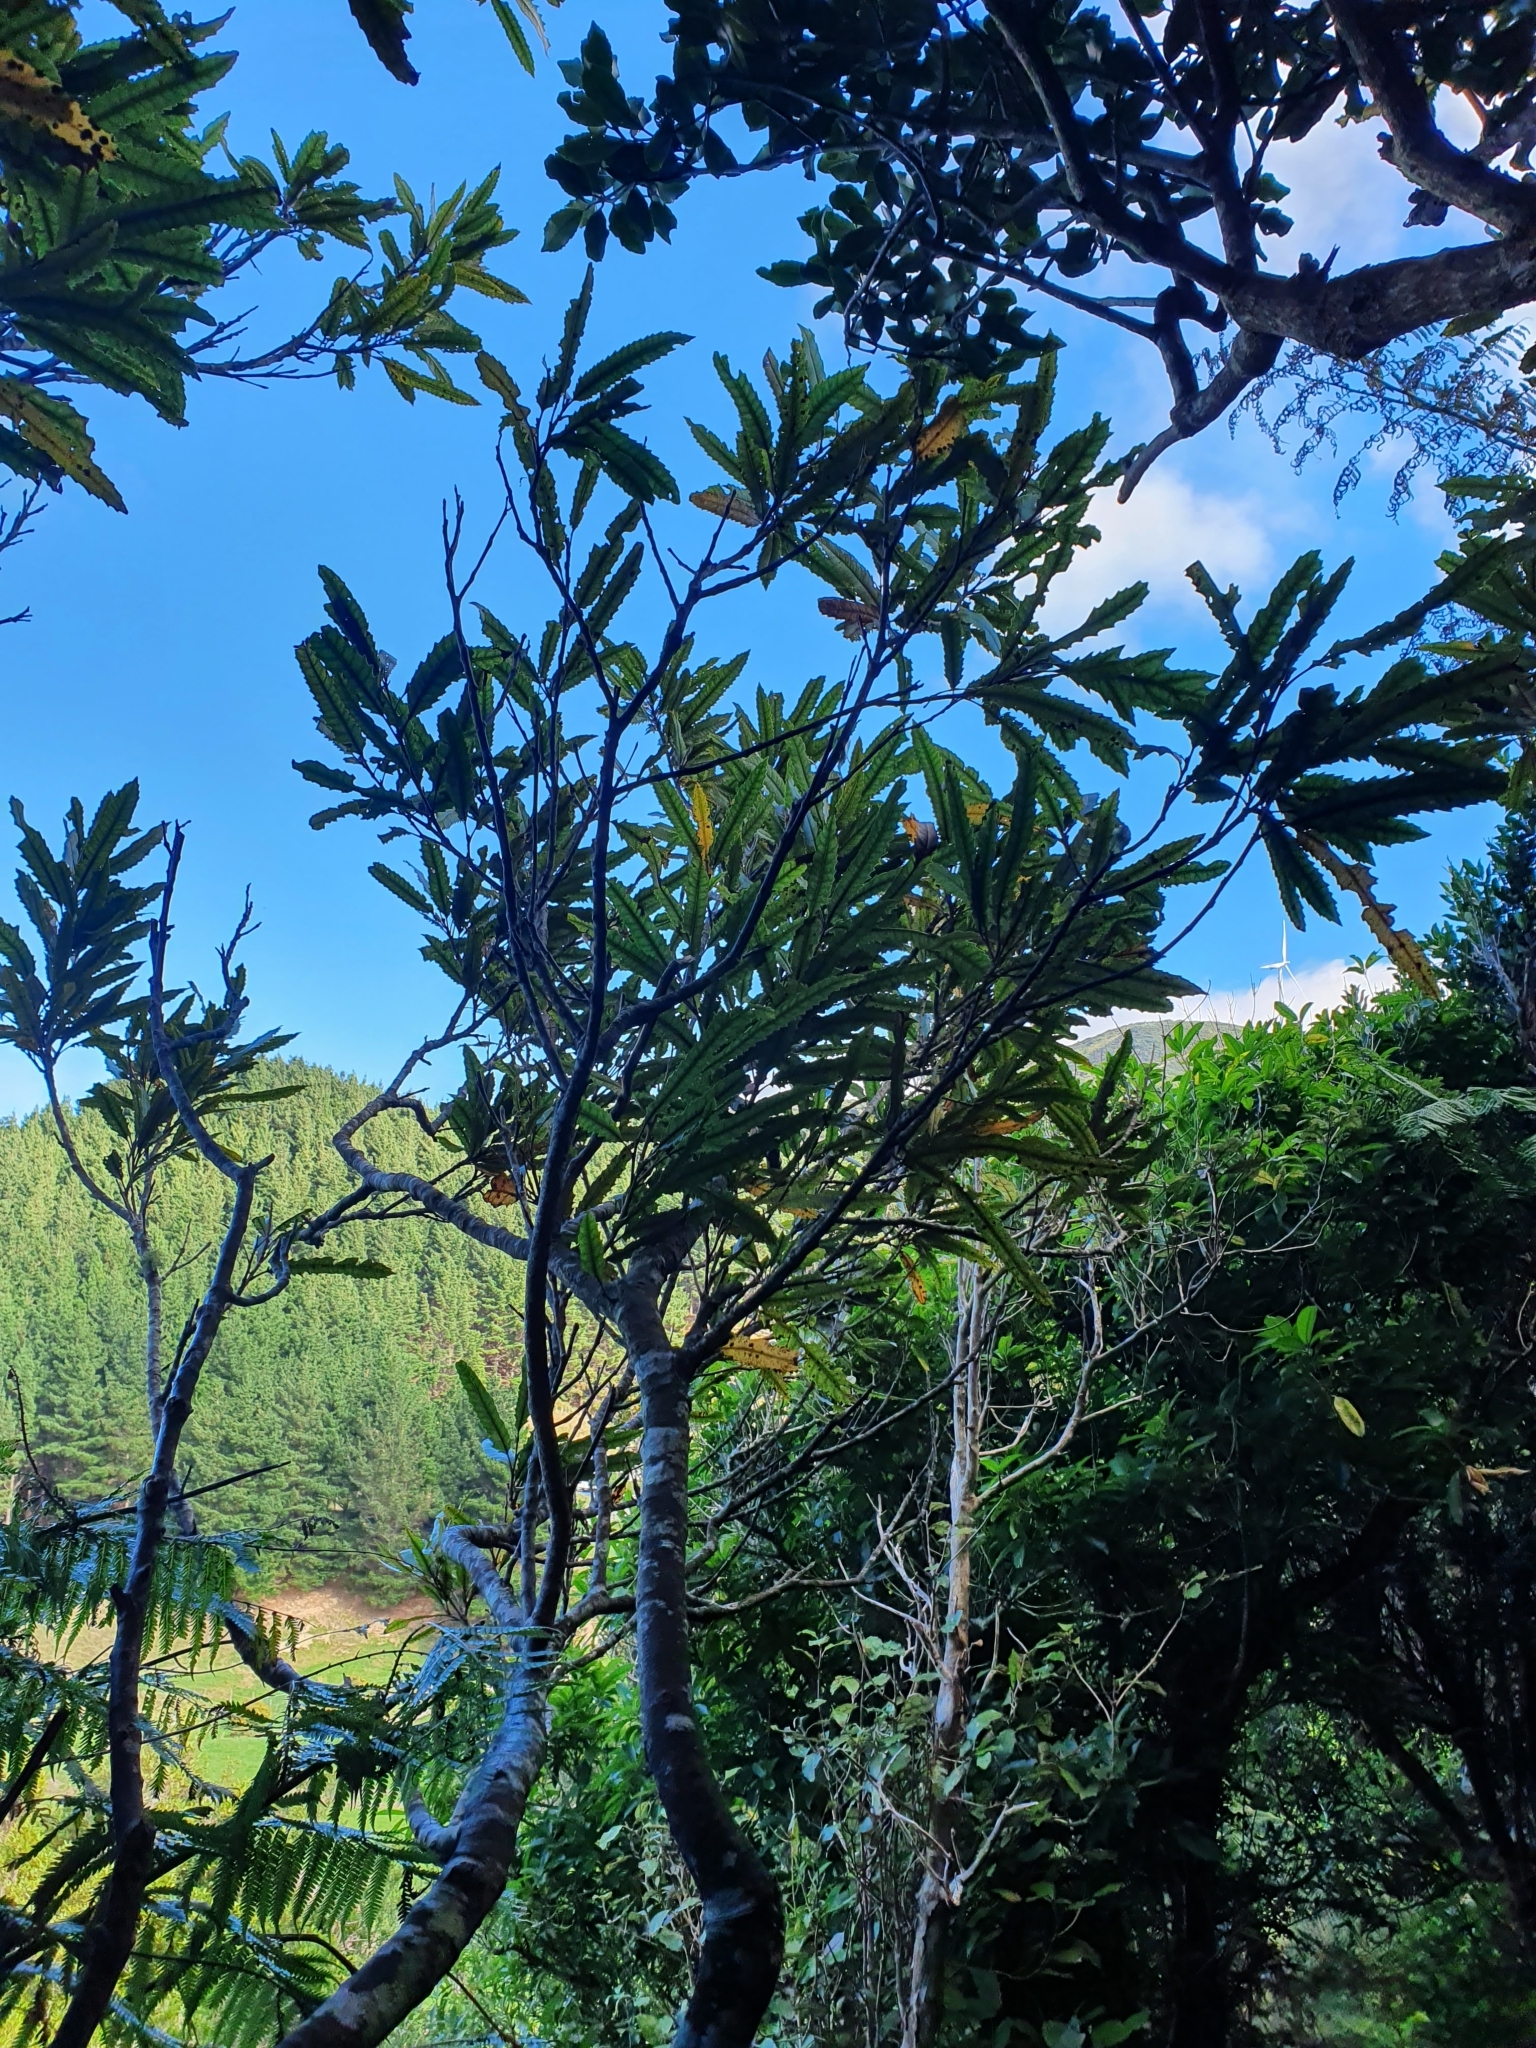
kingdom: Plantae
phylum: Tracheophyta
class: Magnoliopsida
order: Proteales
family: Proteaceae
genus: Knightia
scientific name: Knightia excelsa
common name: New zealand-honeysuckle
